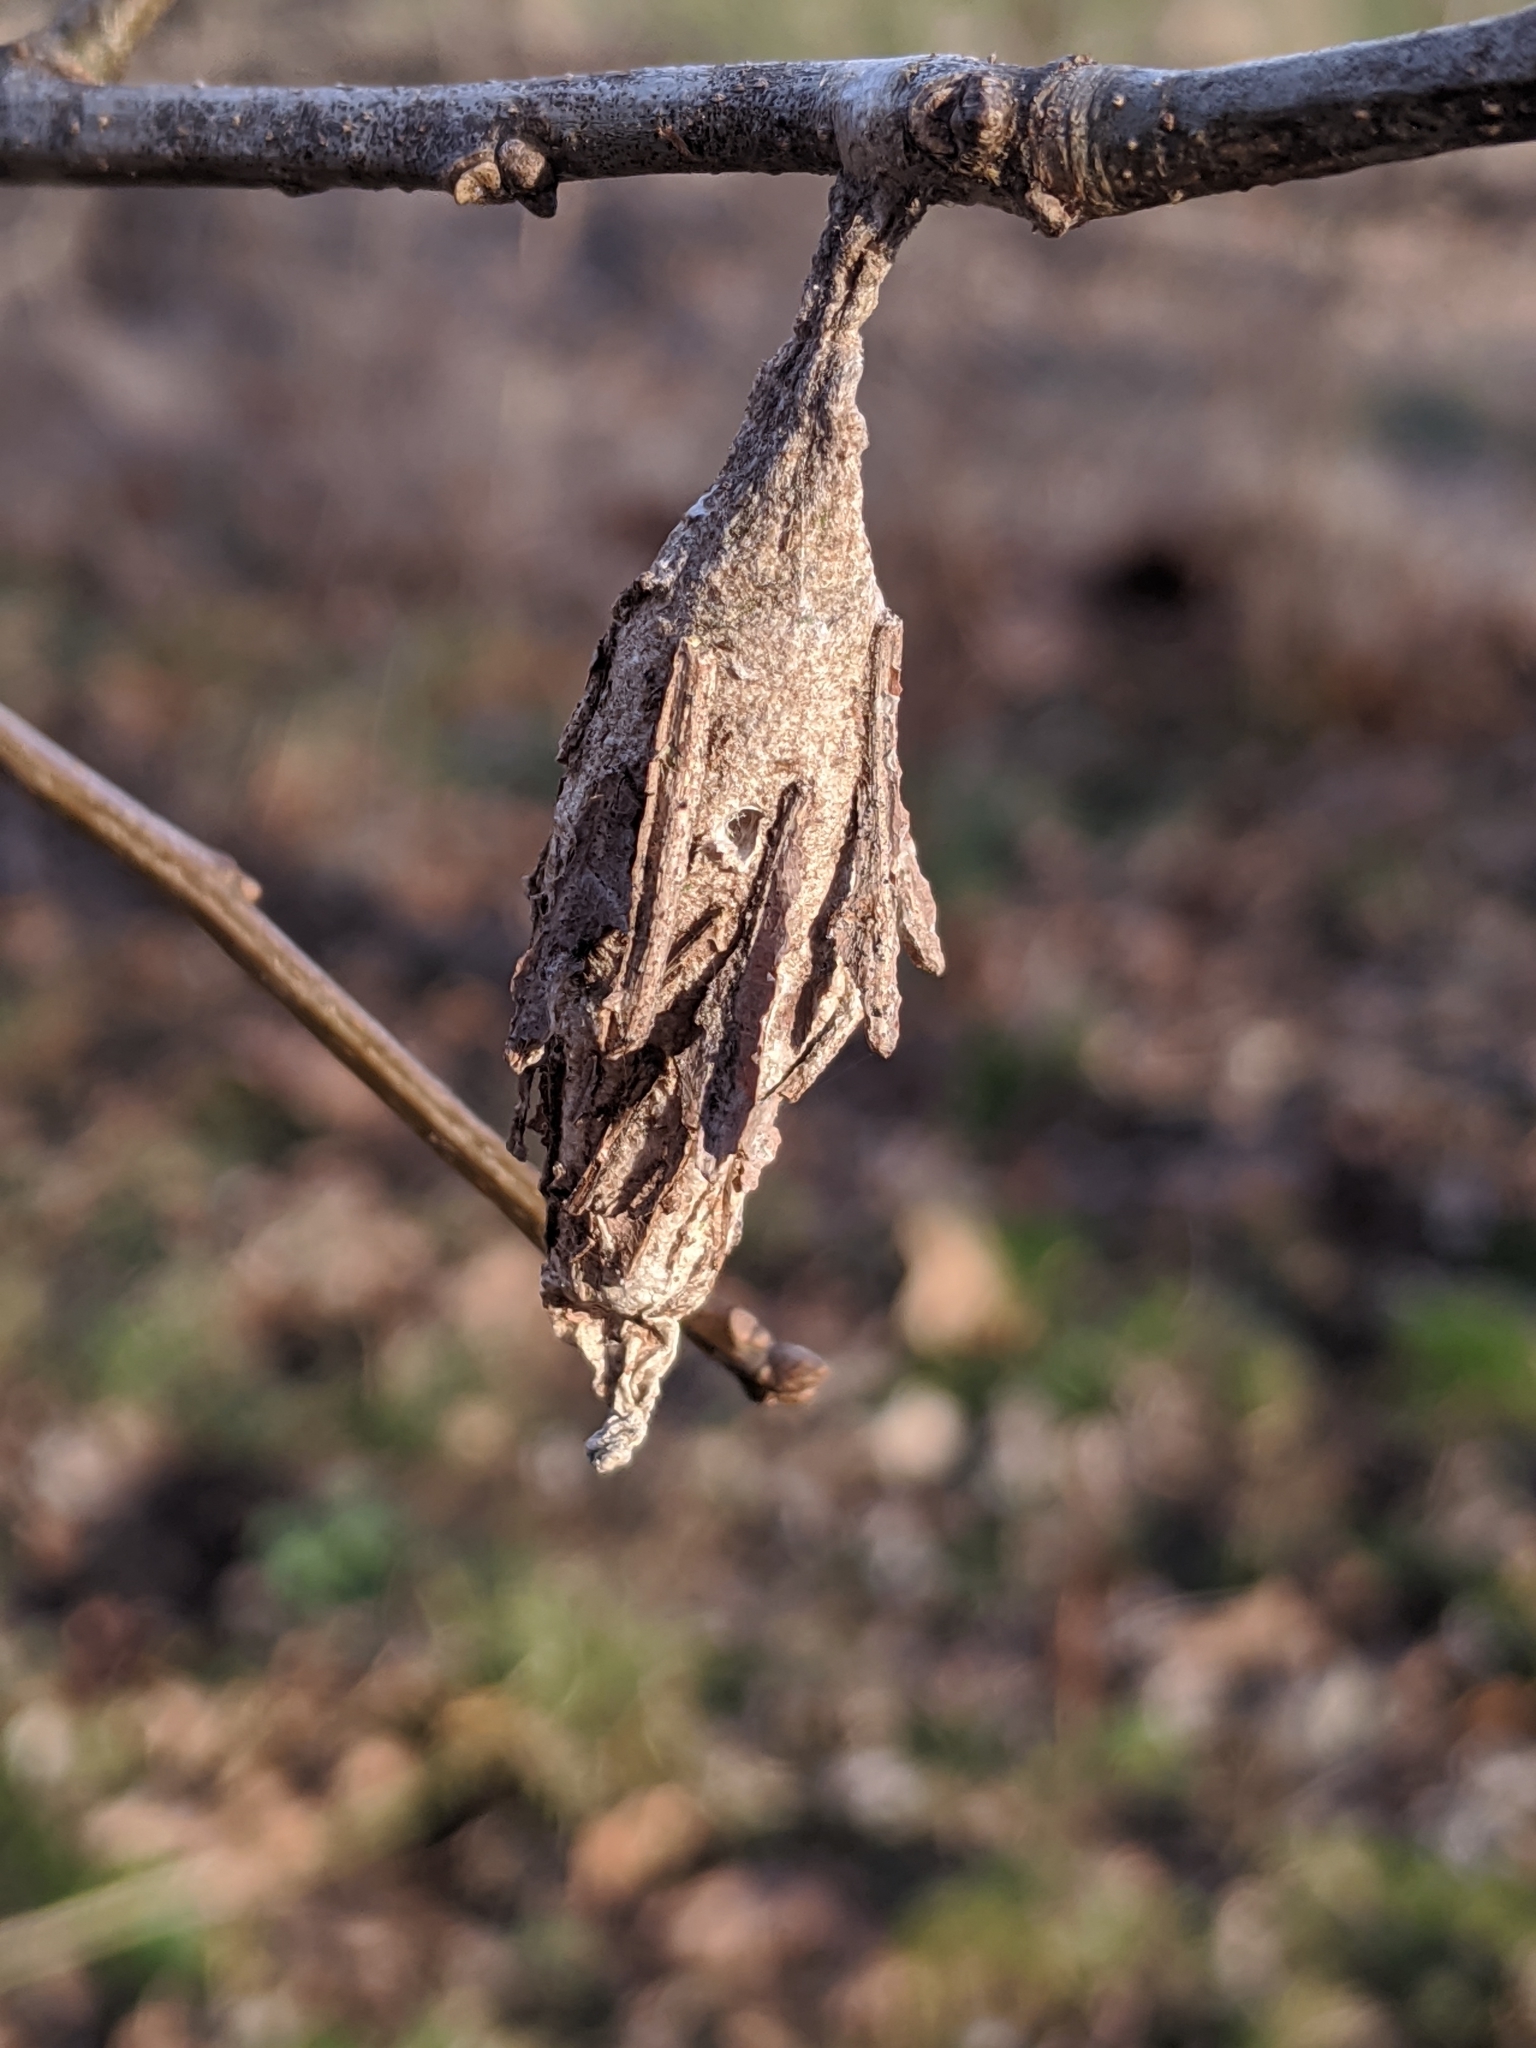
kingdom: Animalia
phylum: Arthropoda
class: Insecta
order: Lepidoptera
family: Psychidae
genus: Thyridopteryx
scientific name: Thyridopteryx ephemeraeformis
